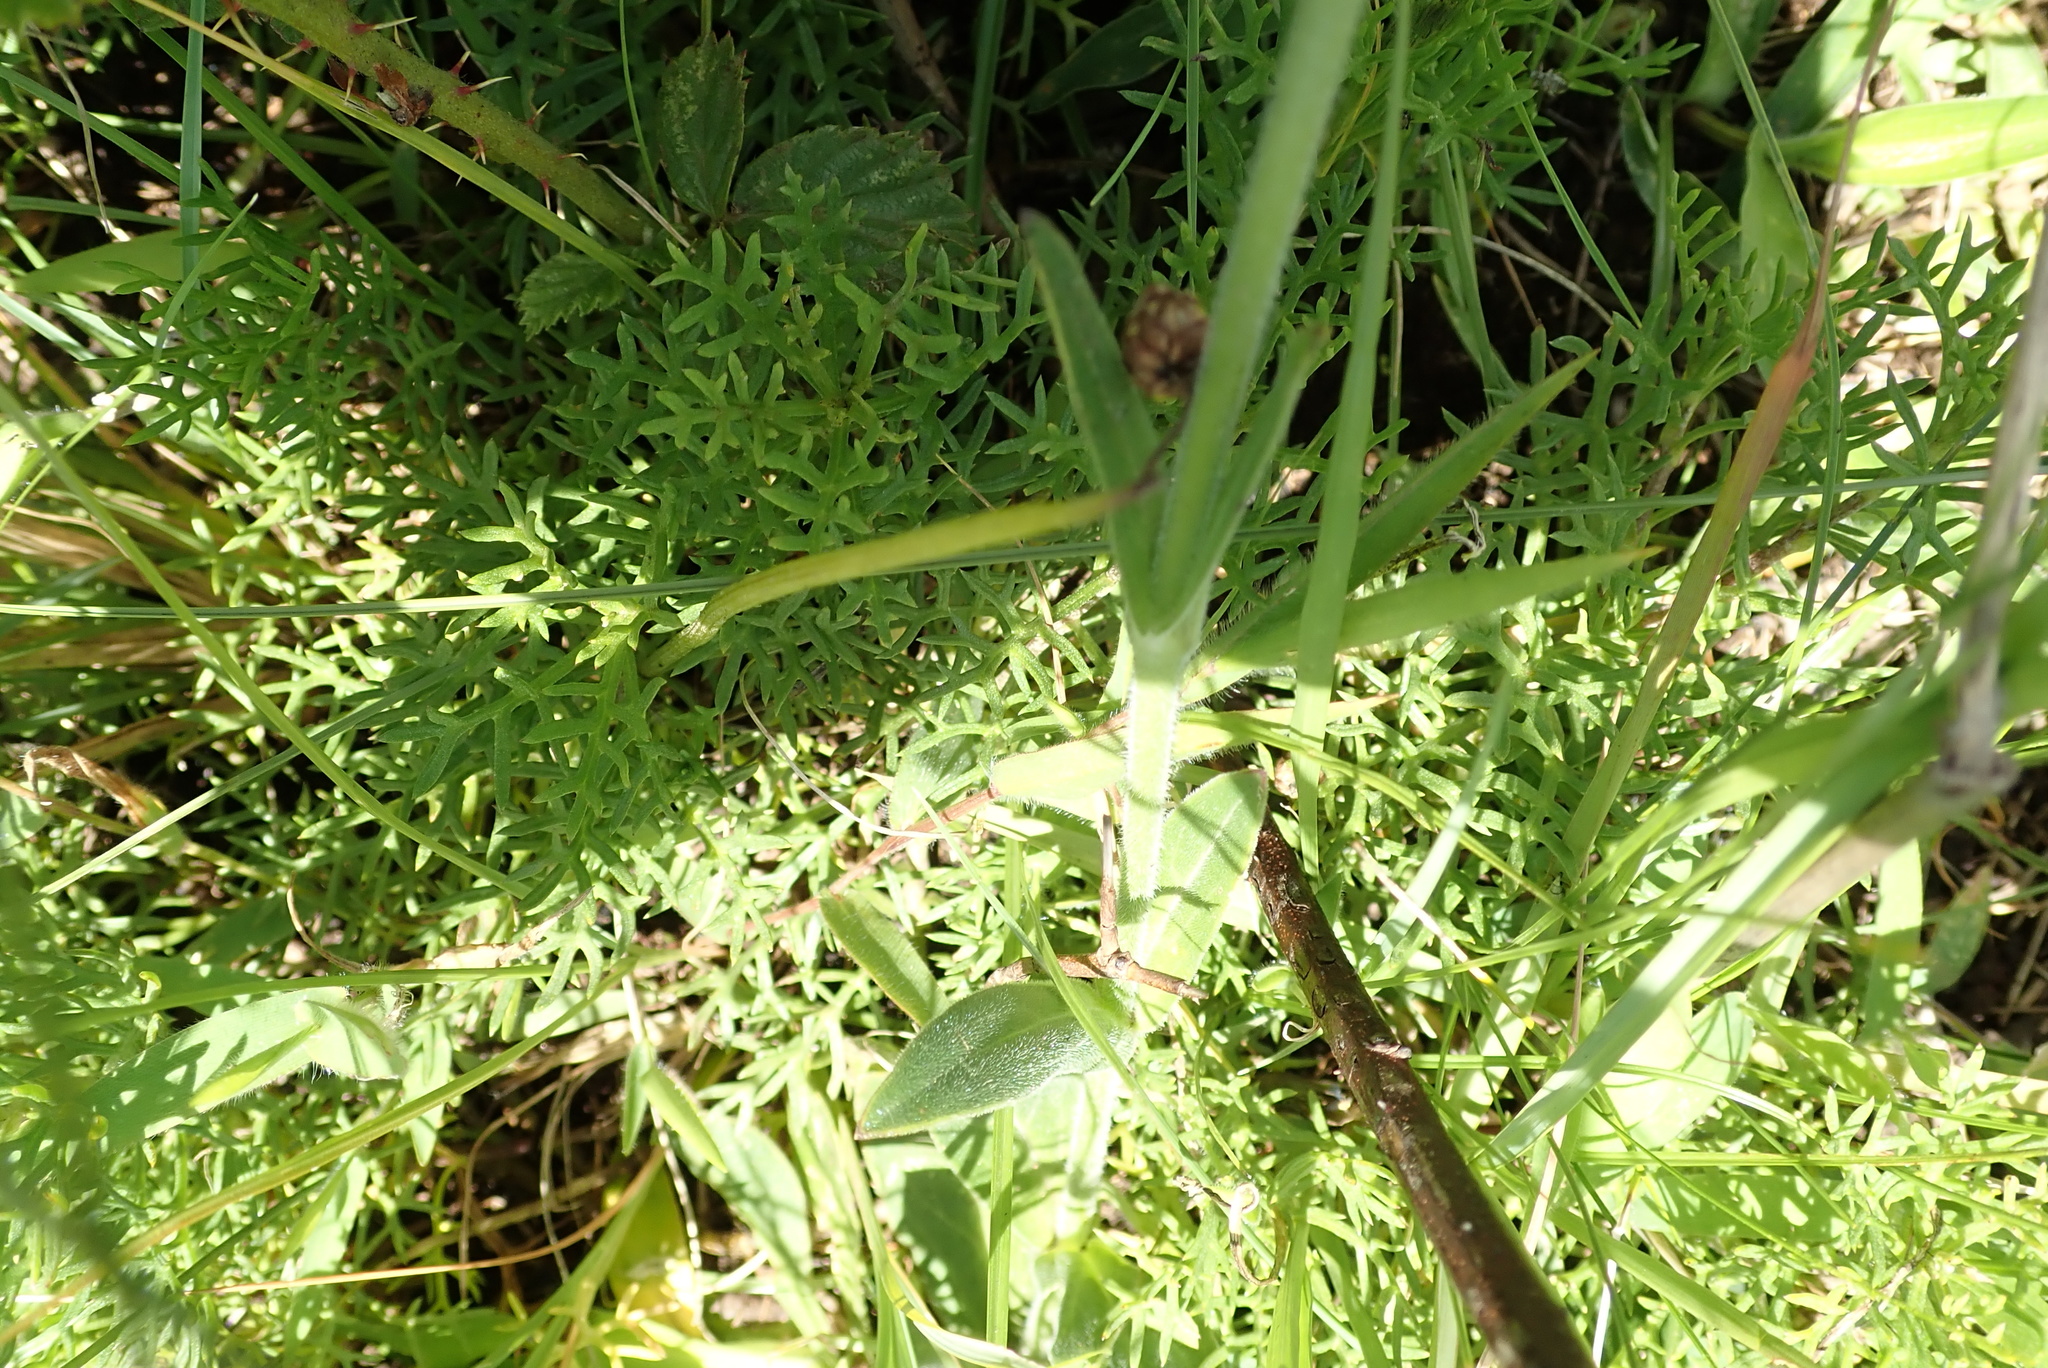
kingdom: Plantae
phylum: Tracheophyta
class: Magnoliopsida
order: Caryophyllales
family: Caryophyllaceae
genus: Silene
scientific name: Silene undulata
